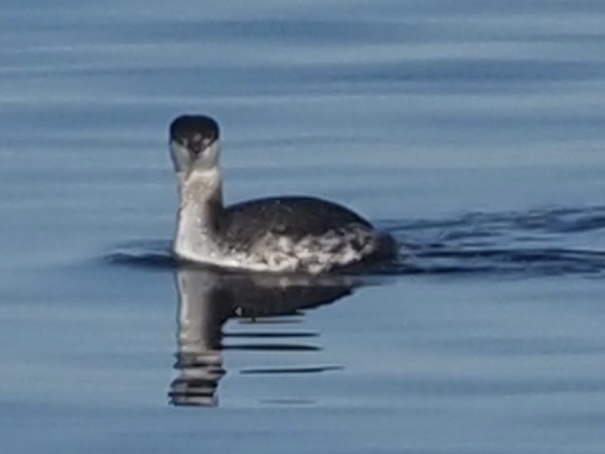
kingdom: Animalia
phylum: Chordata
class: Aves
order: Podicipediformes
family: Podicipedidae
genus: Podiceps
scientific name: Podiceps auritus
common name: Horned grebe
